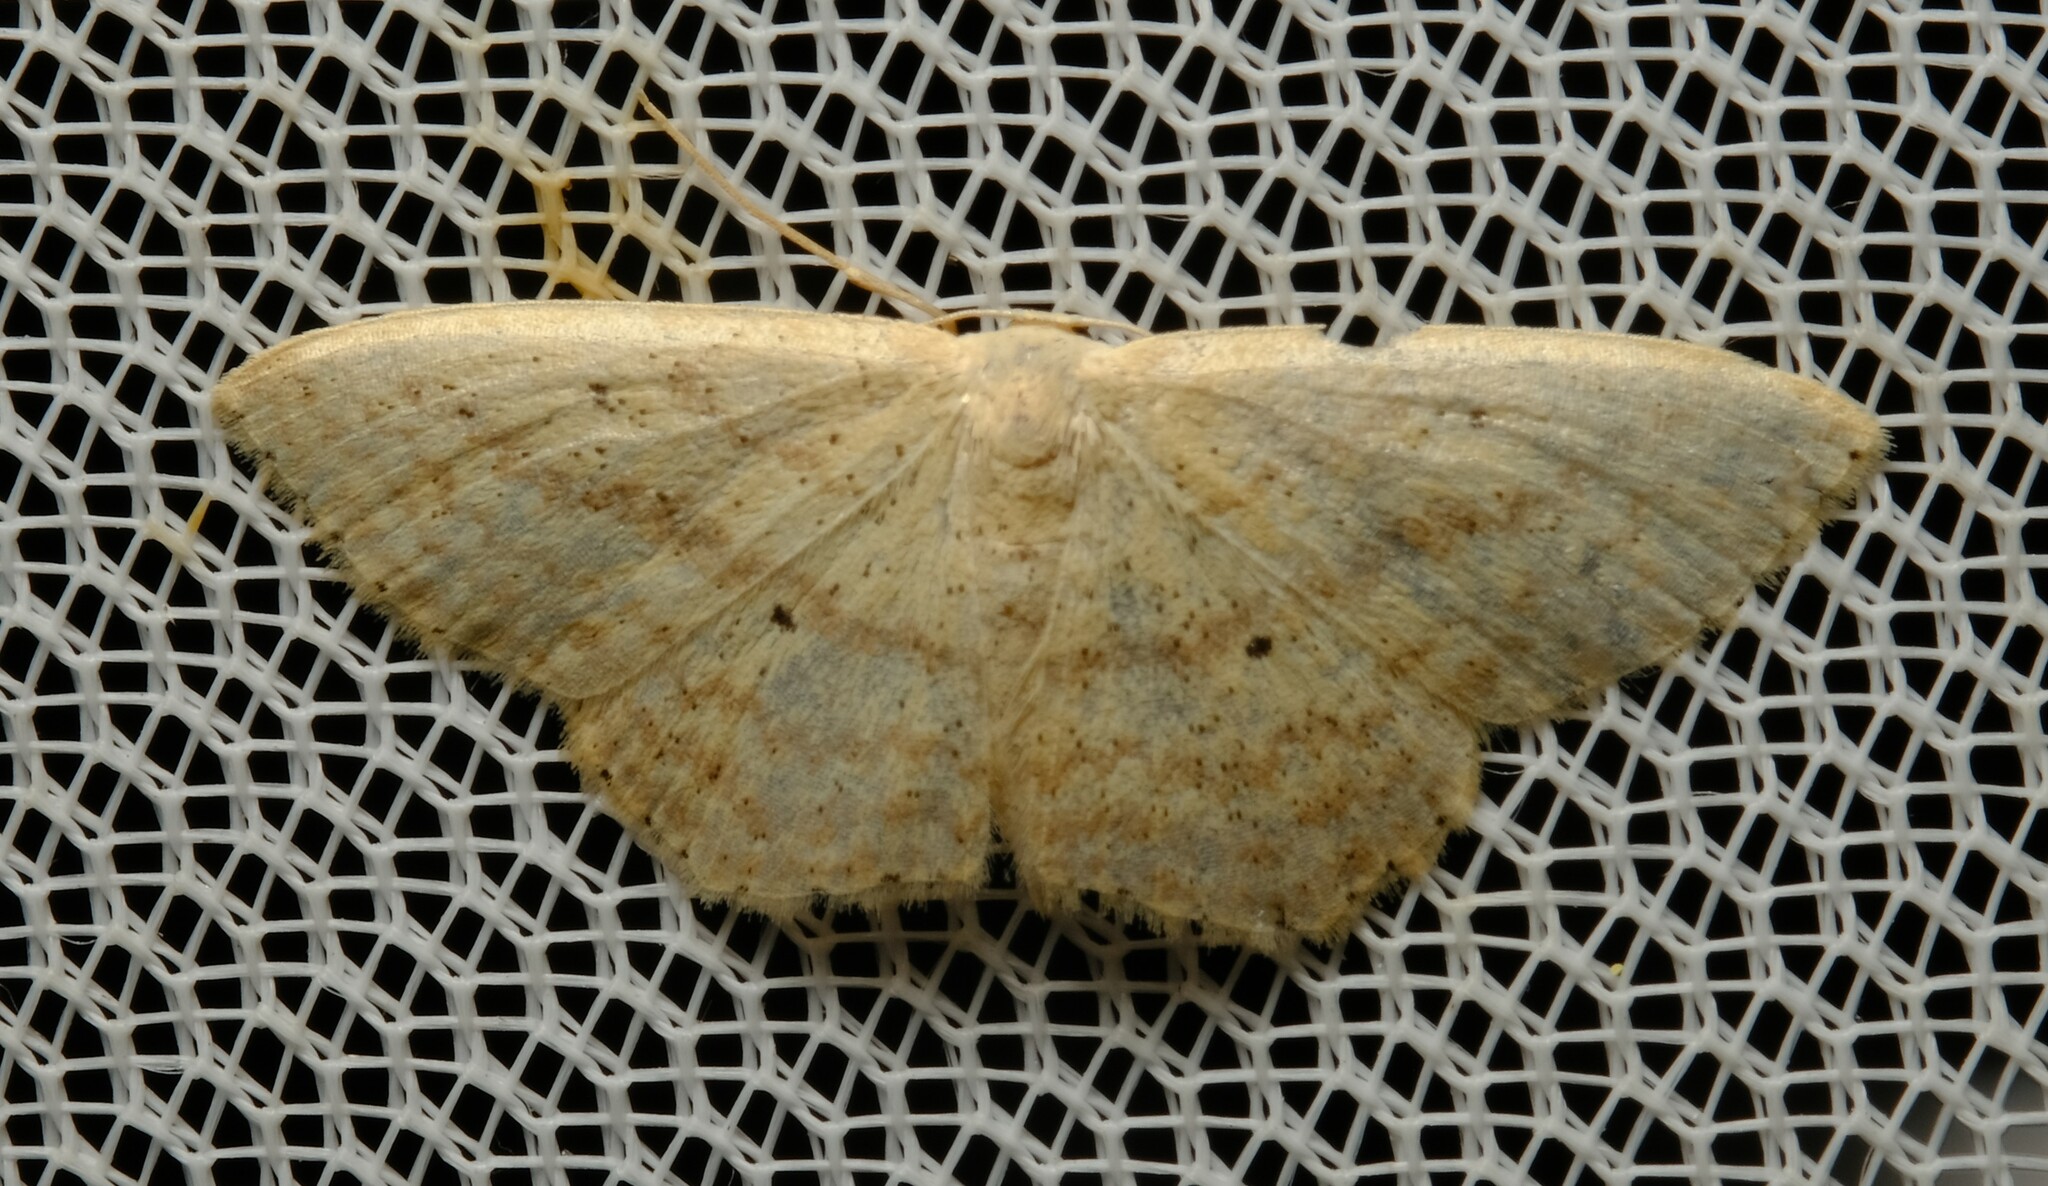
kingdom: Animalia
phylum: Arthropoda
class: Insecta
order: Lepidoptera
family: Geometridae
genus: Scopula
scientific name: Scopula perlata
